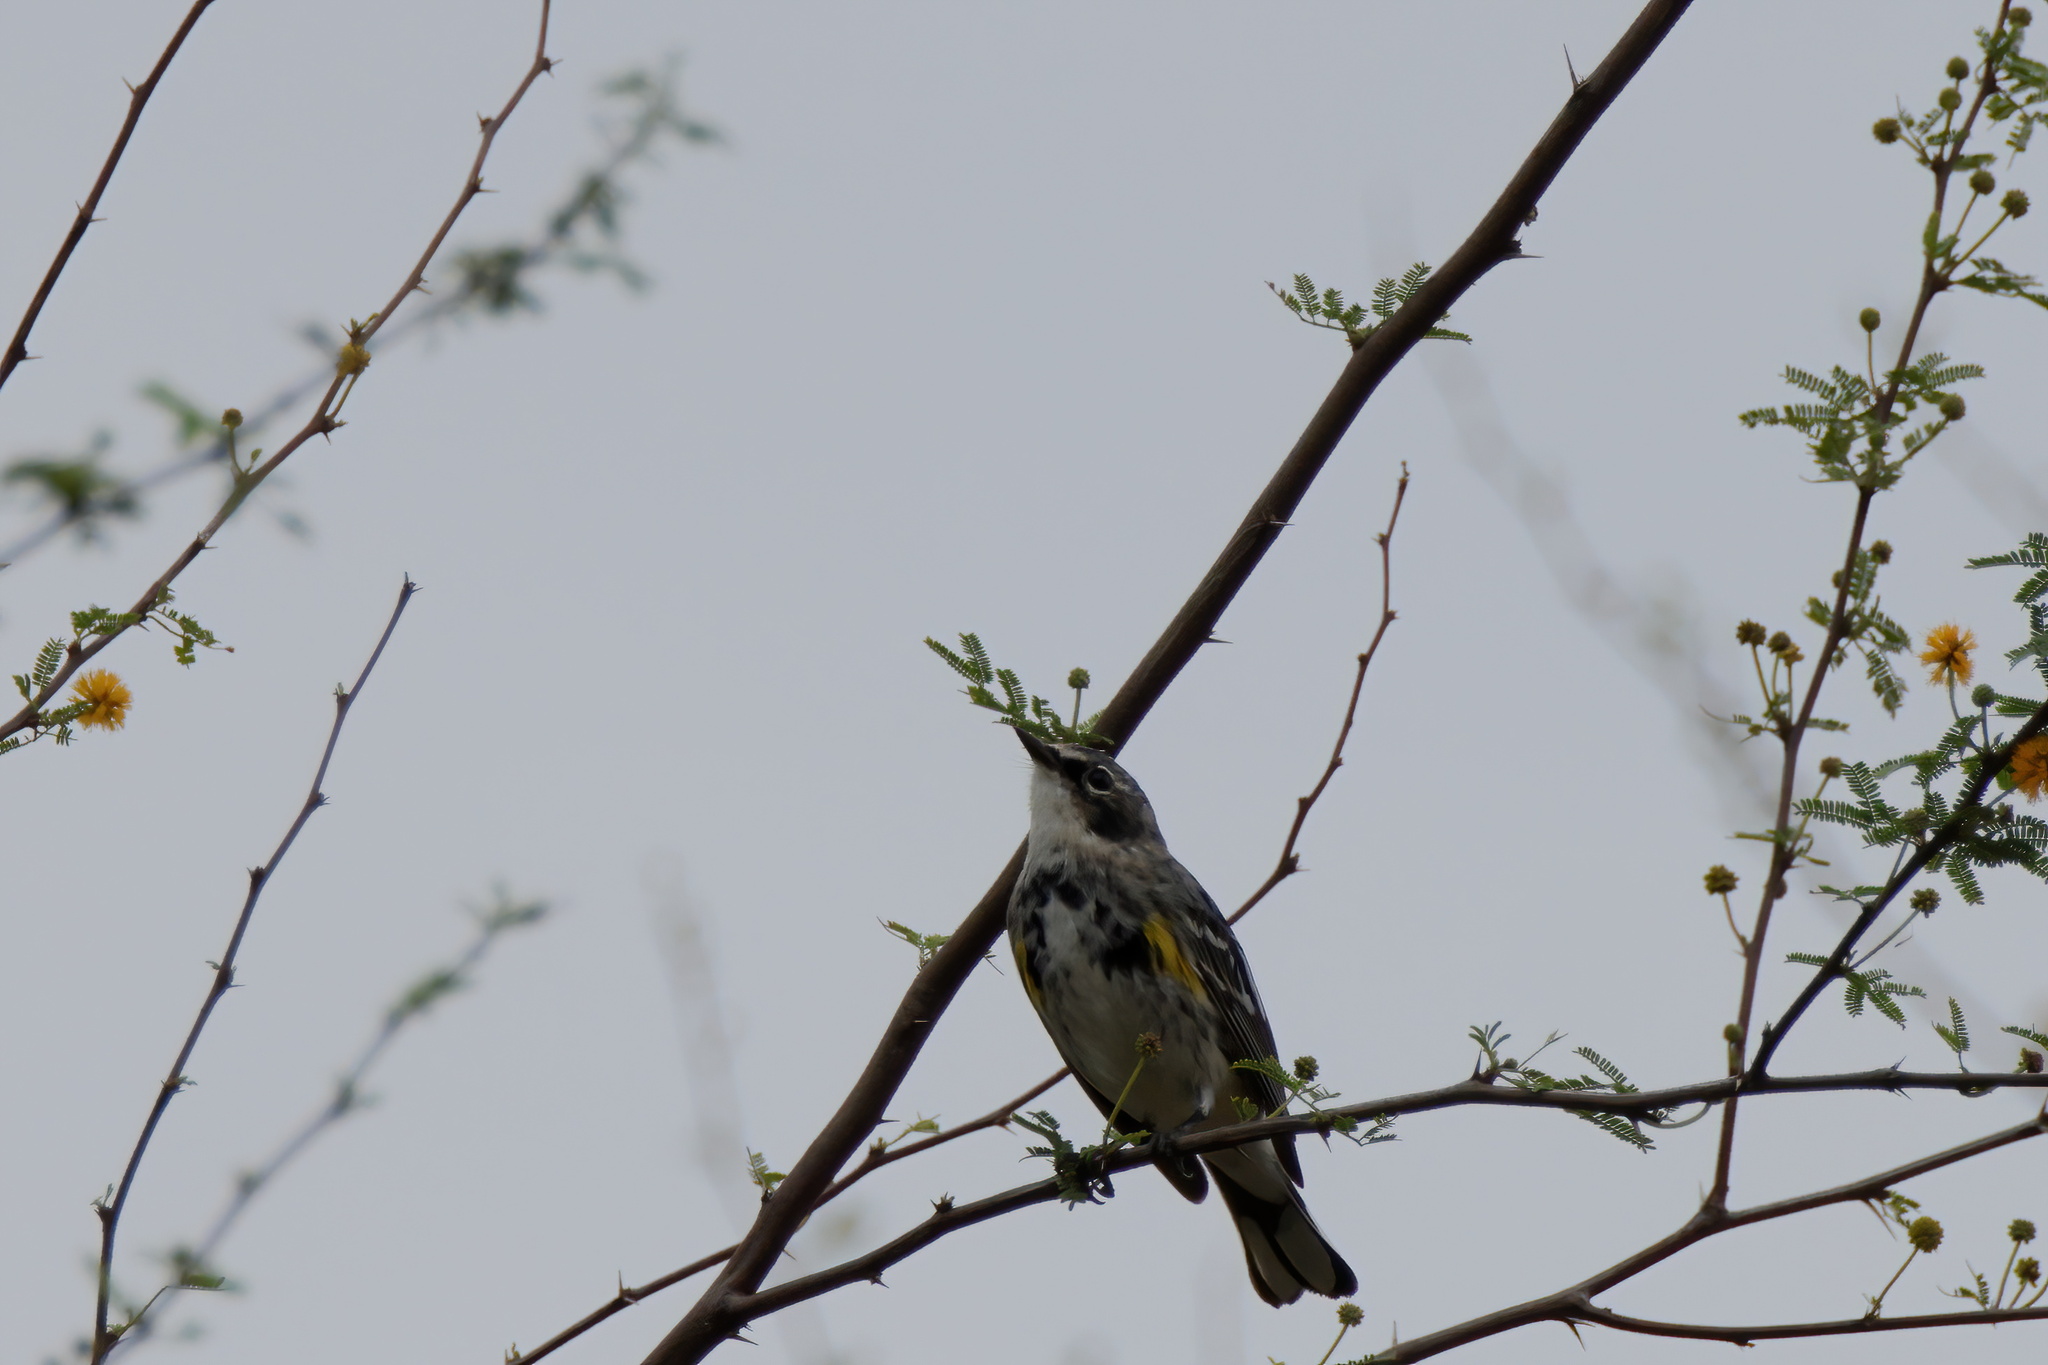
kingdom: Animalia
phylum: Chordata
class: Aves
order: Passeriformes
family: Parulidae
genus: Setophaga
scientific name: Setophaga coronata
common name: Myrtle warbler
